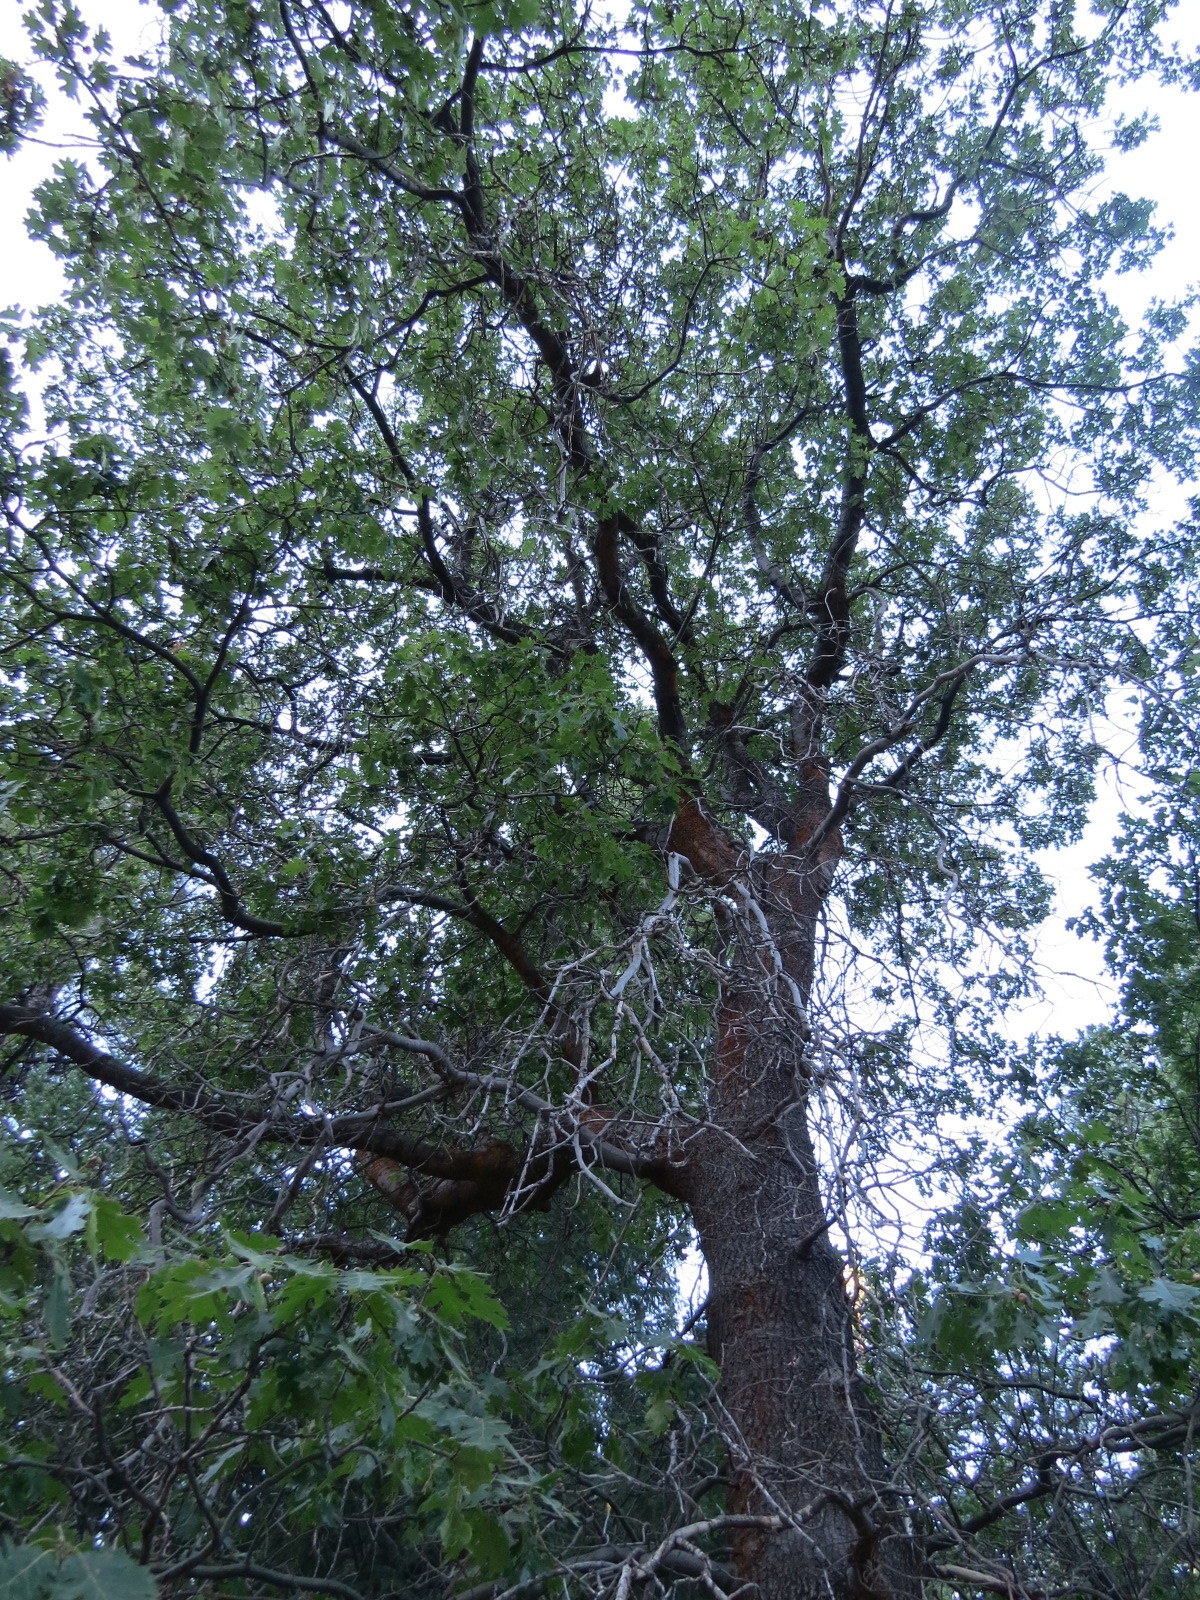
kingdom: Plantae
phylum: Tracheophyta
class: Magnoliopsida
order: Fagales
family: Fagaceae
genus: Quercus
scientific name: Quercus kelloggii
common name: California black oak
